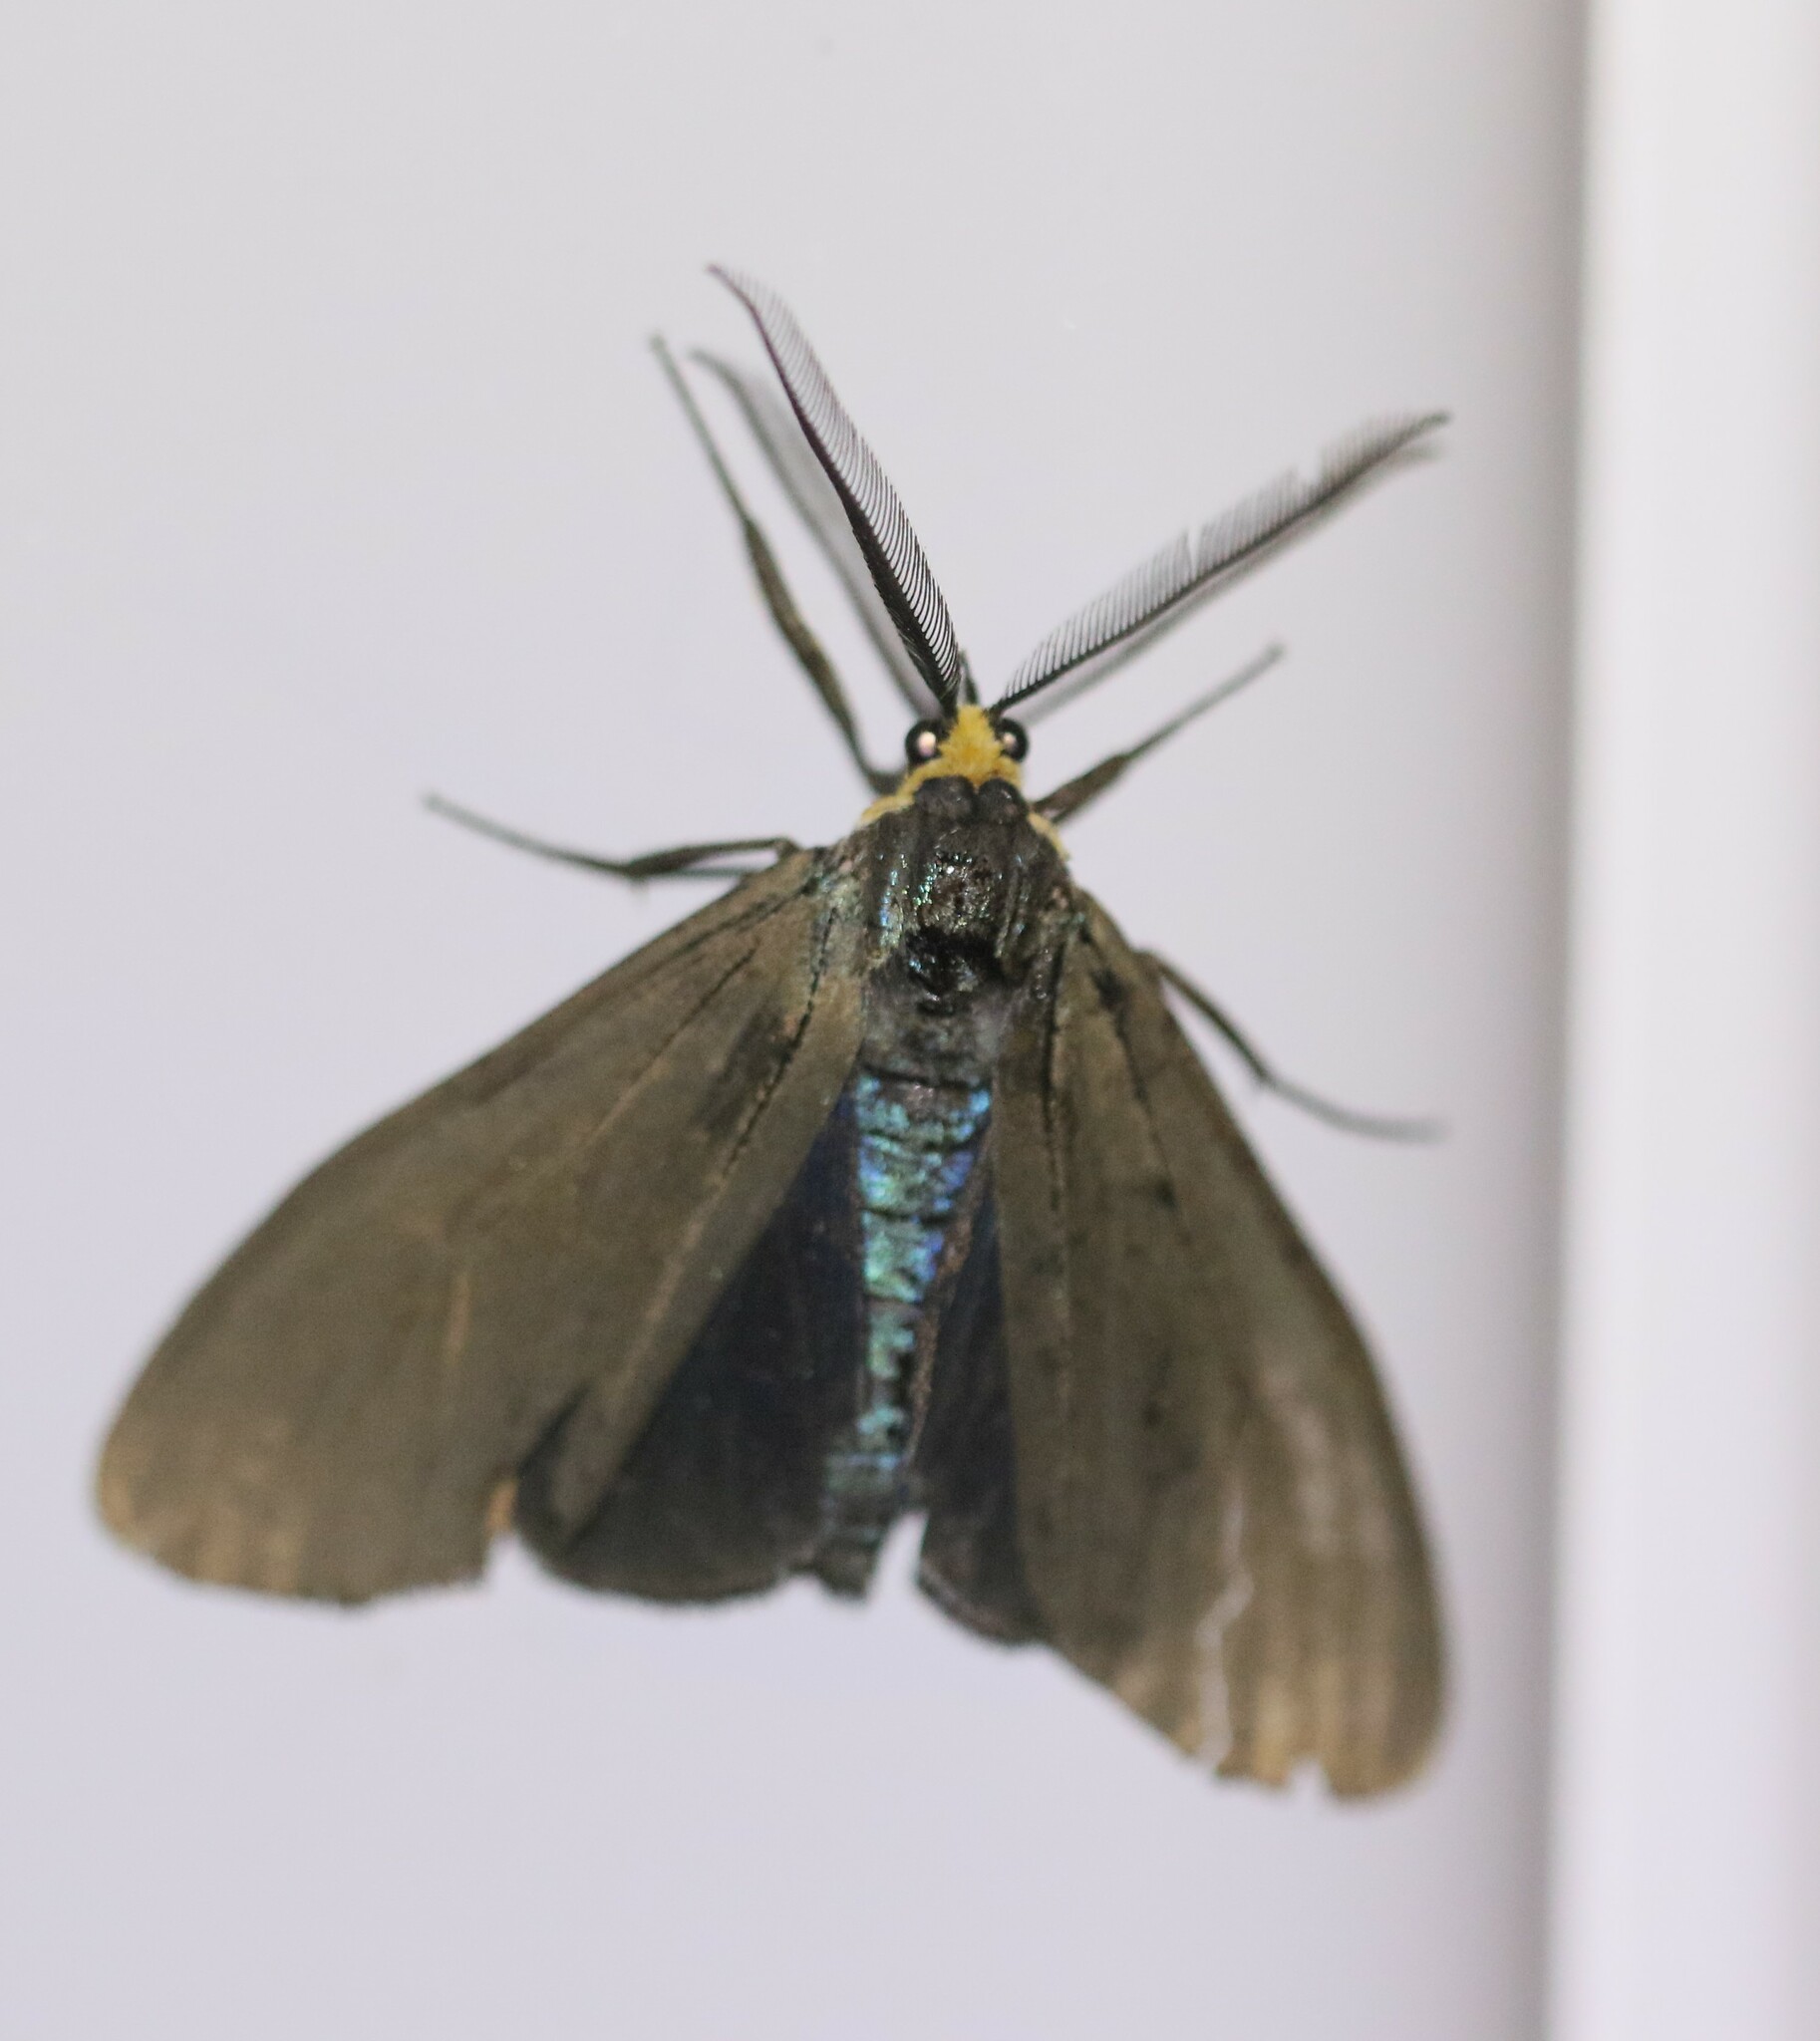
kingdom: Animalia
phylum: Arthropoda
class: Insecta
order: Lepidoptera
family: Erebidae
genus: Ctenucha
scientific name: Ctenucha virginica
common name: Virginia ctenucha moth
